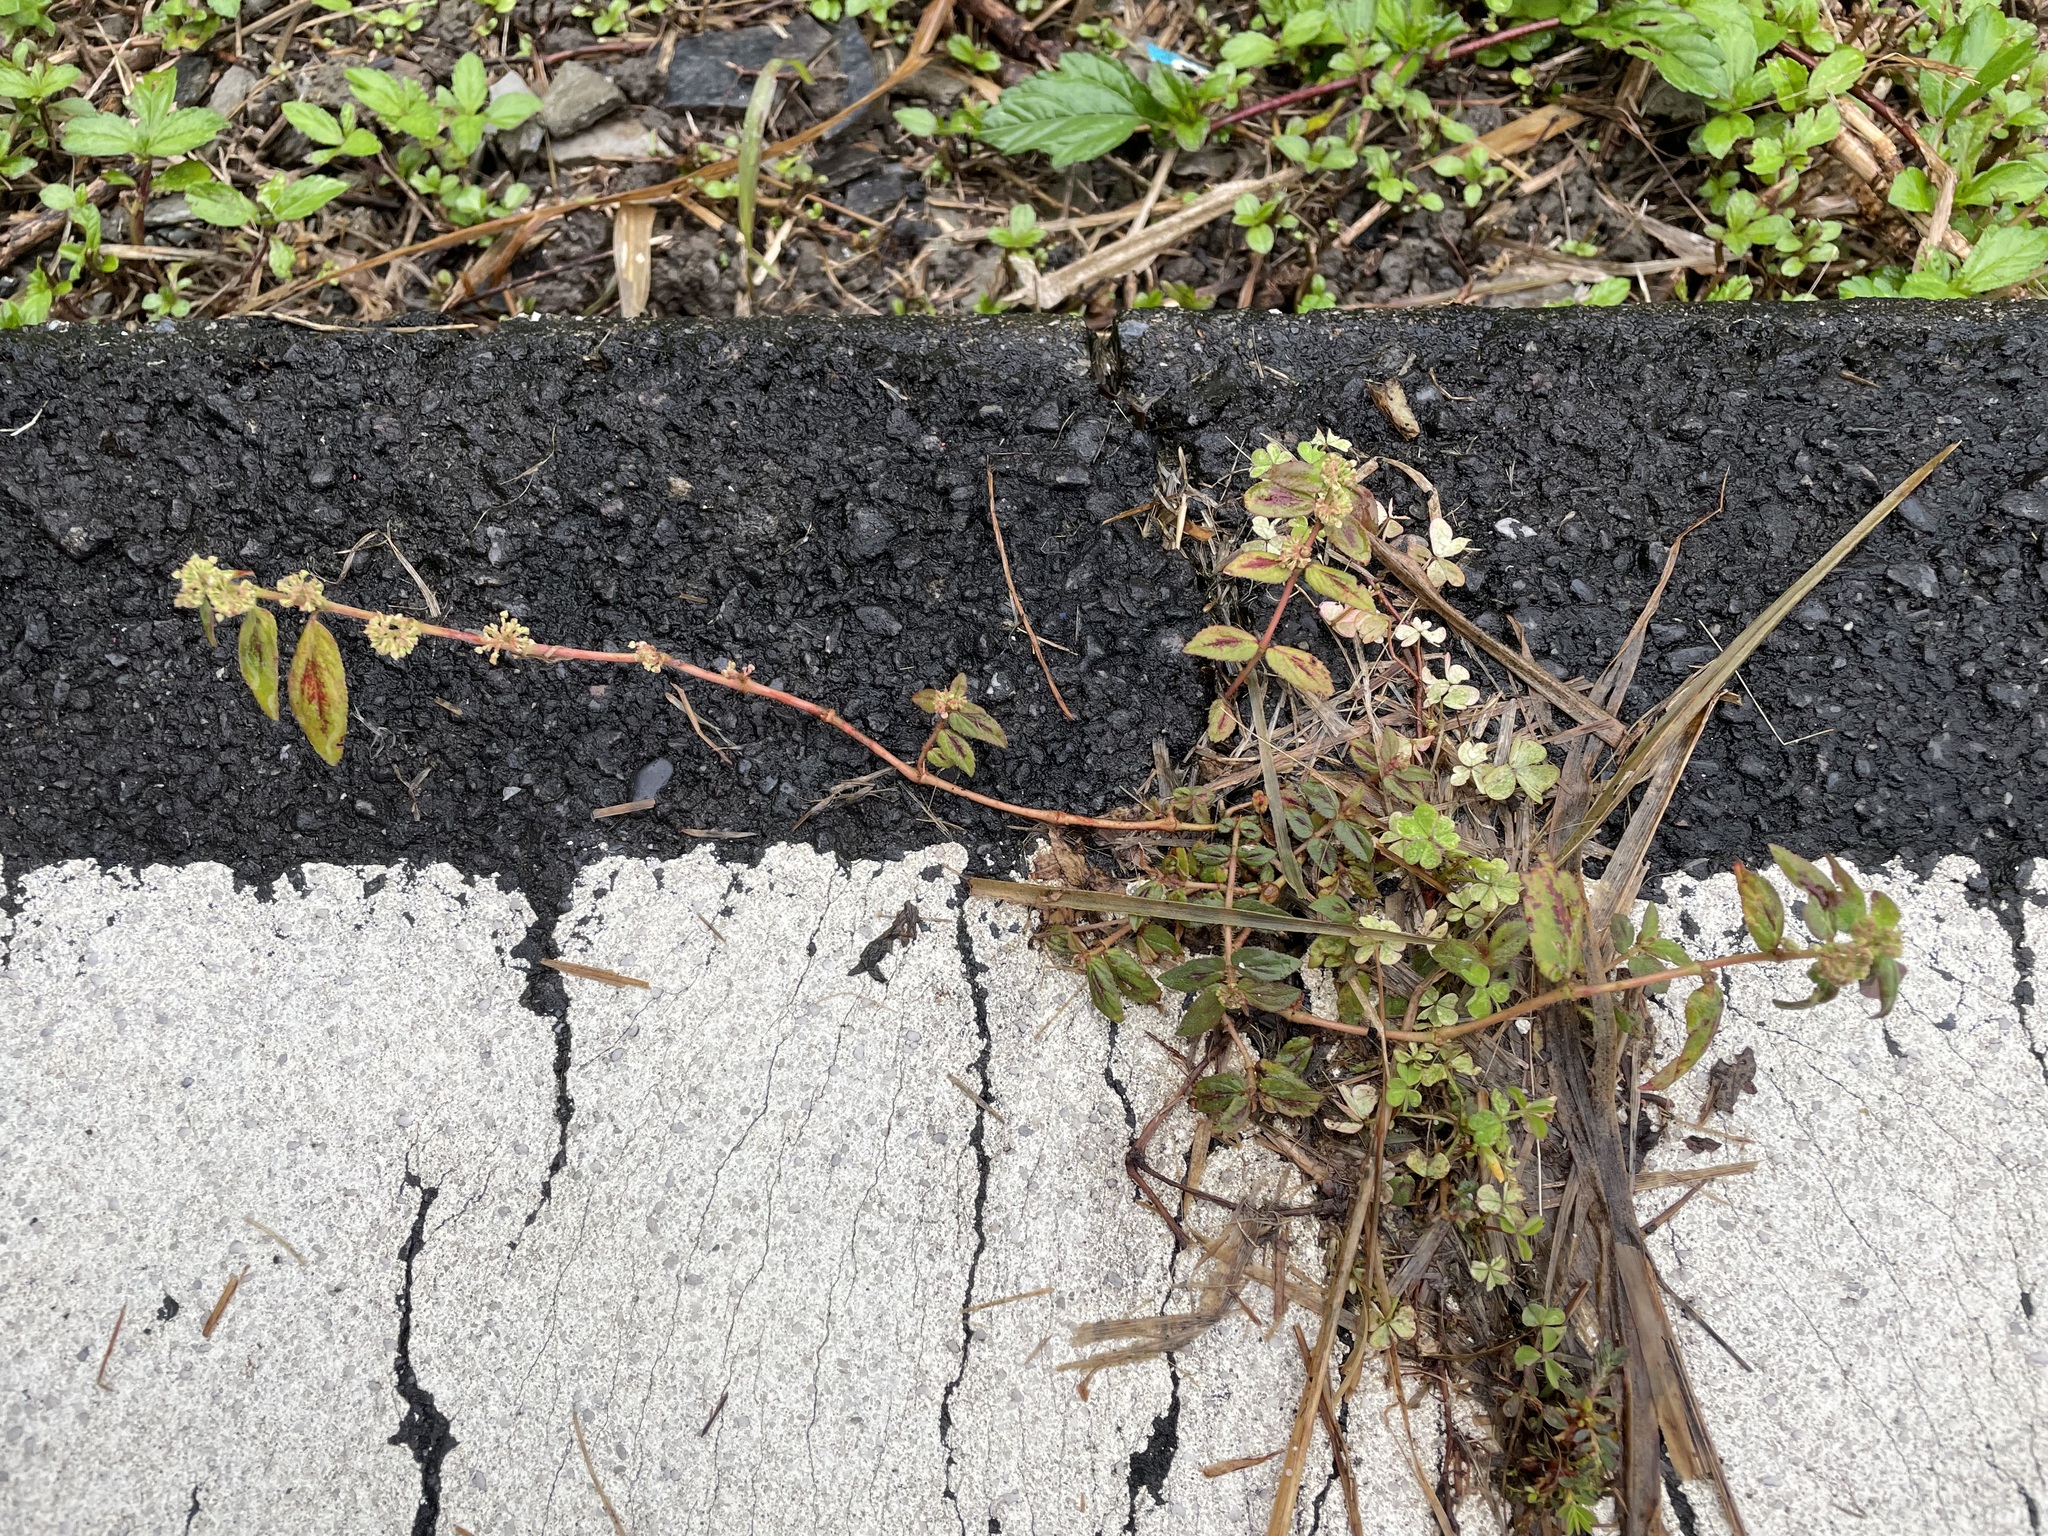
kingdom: Plantae
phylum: Tracheophyta
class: Magnoliopsida
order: Malpighiales
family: Euphorbiaceae
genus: Euphorbia
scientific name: Euphorbia hirta
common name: Pillpod sandmat
